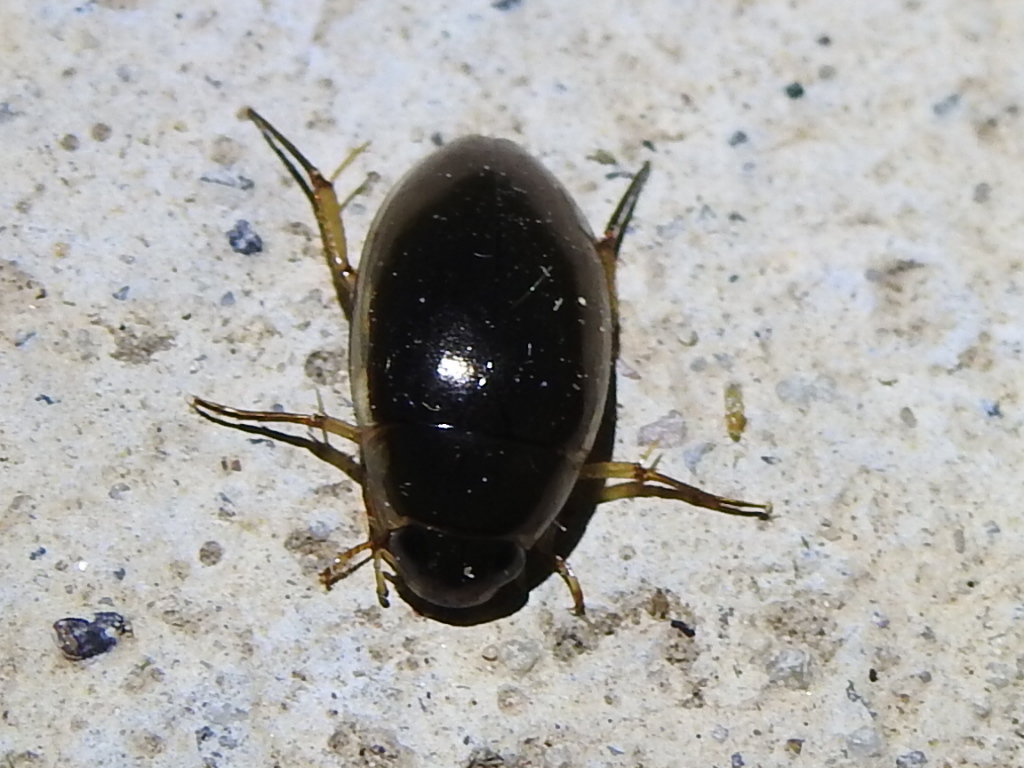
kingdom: Animalia
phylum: Arthropoda
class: Insecta
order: Coleoptera
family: Hydrophilidae
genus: Tropisternus
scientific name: Tropisternus lateralis
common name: Lateral-banded water scavenger beetle
